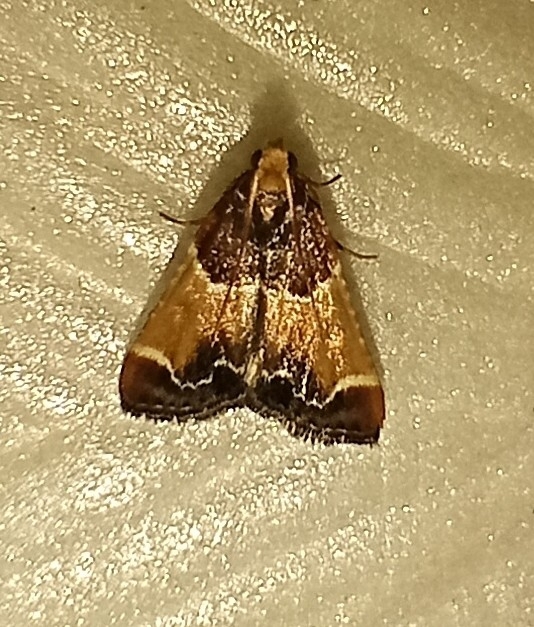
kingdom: Animalia
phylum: Arthropoda
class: Insecta
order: Lepidoptera
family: Pyralidae
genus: Pyralis
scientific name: Pyralis farinalis
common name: Meal moth
